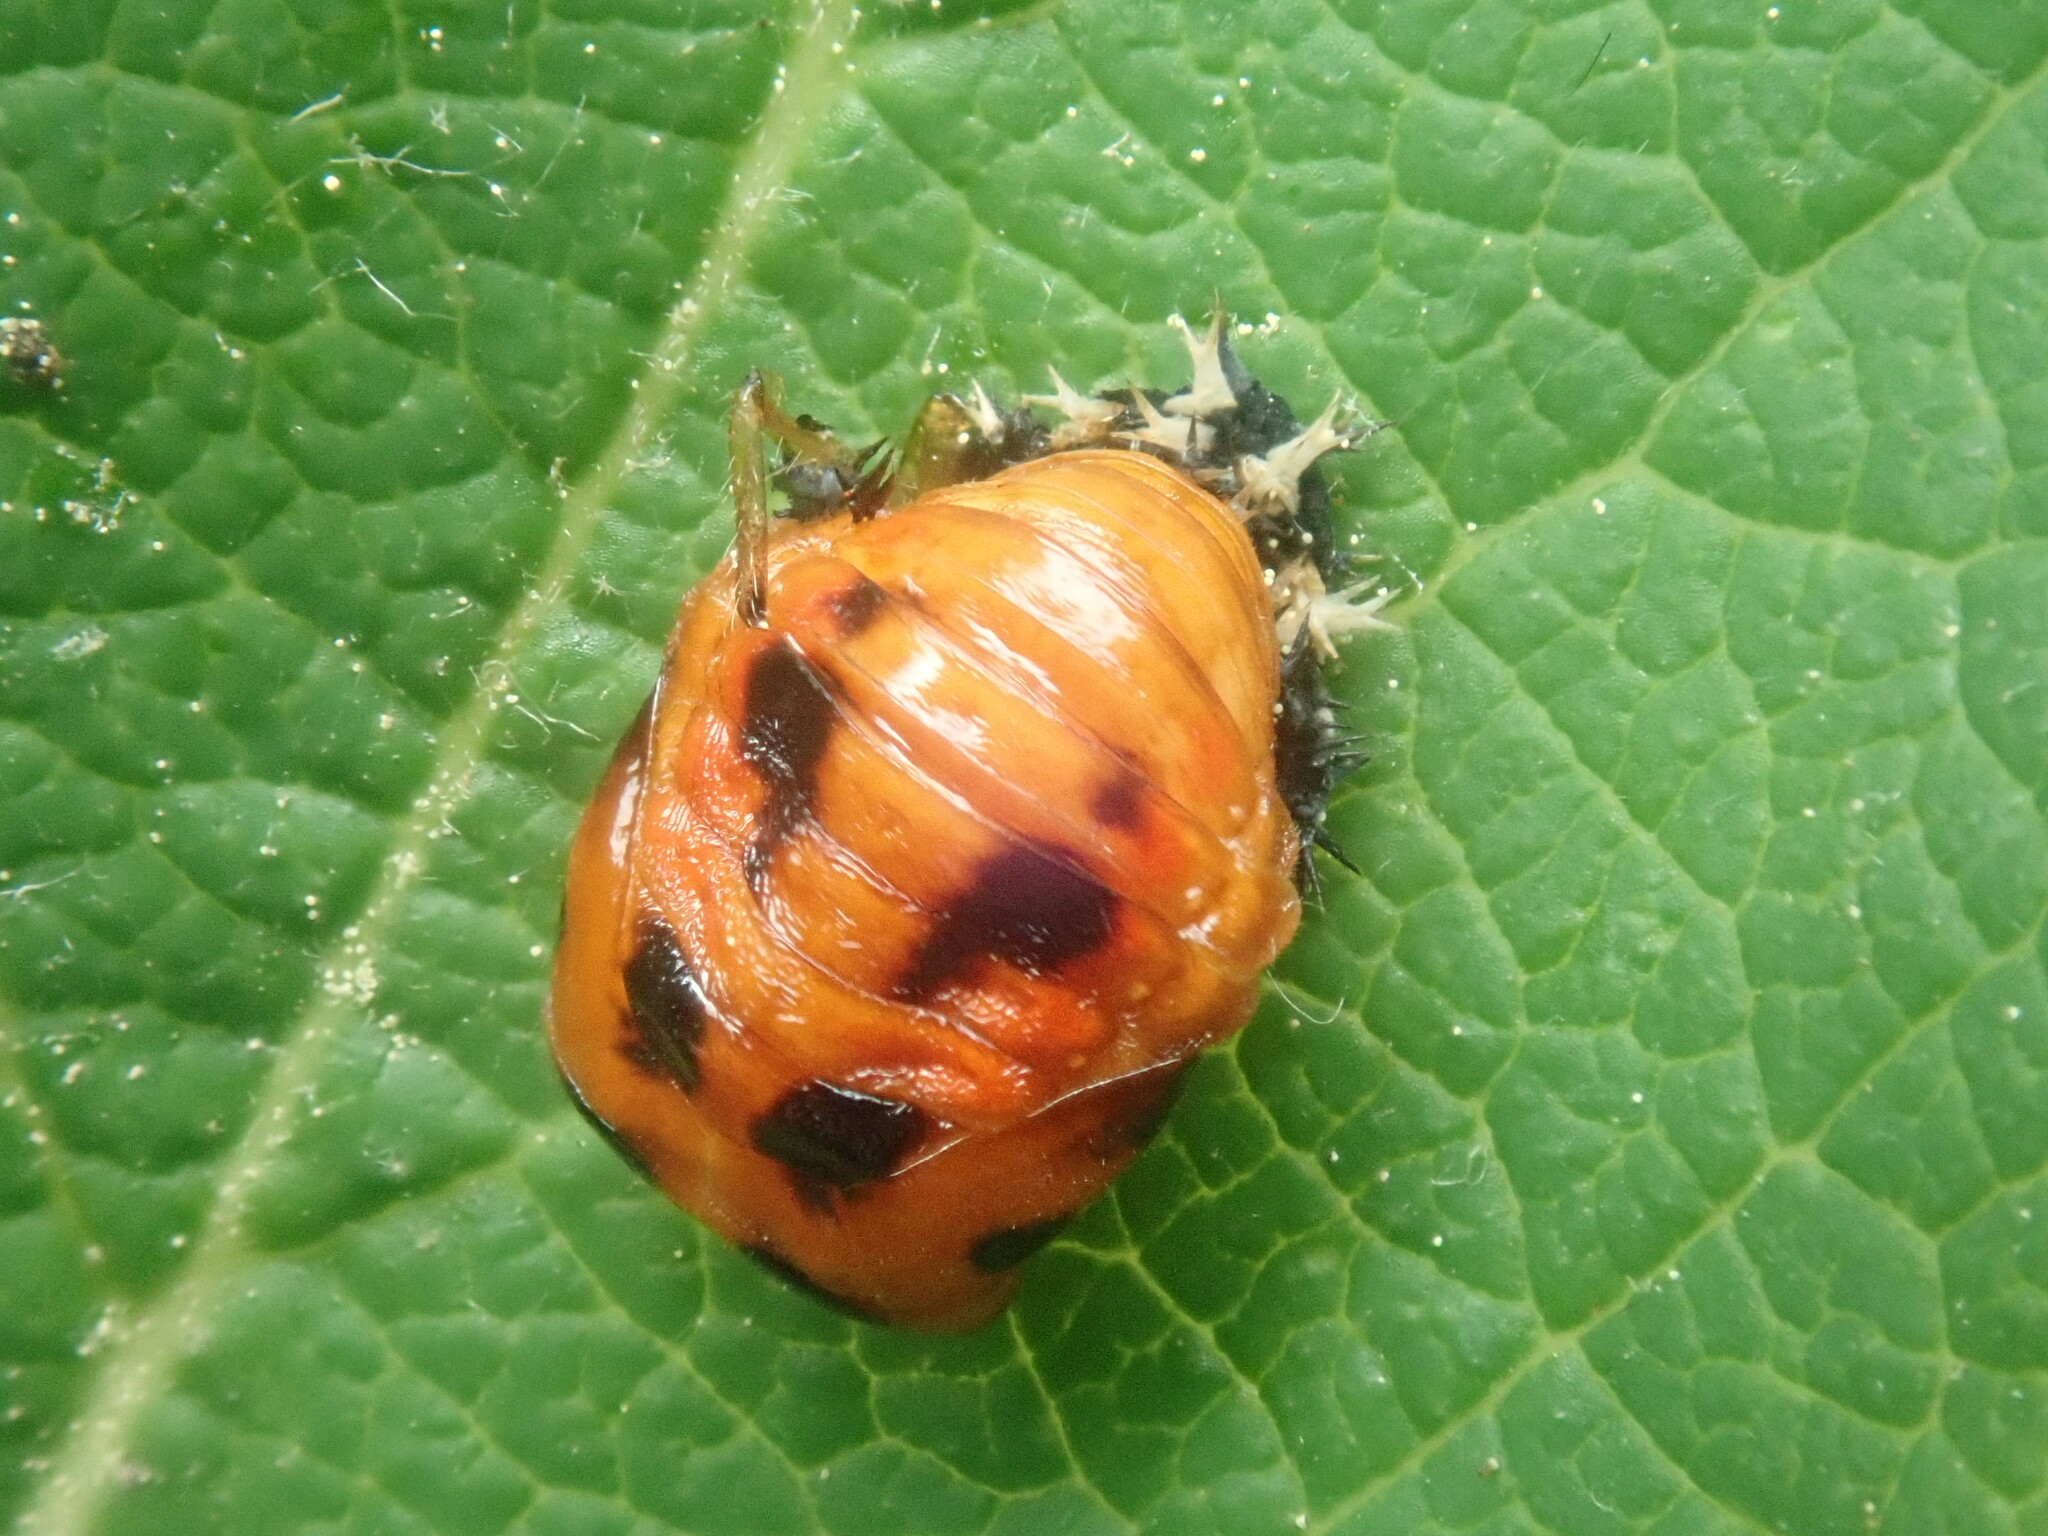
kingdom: Animalia
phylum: Arthropoda
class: Insecta
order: Coleoptera
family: Coccinellidae
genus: Harmonia
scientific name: Harmonia axyridis
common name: Harlequin ladybird
